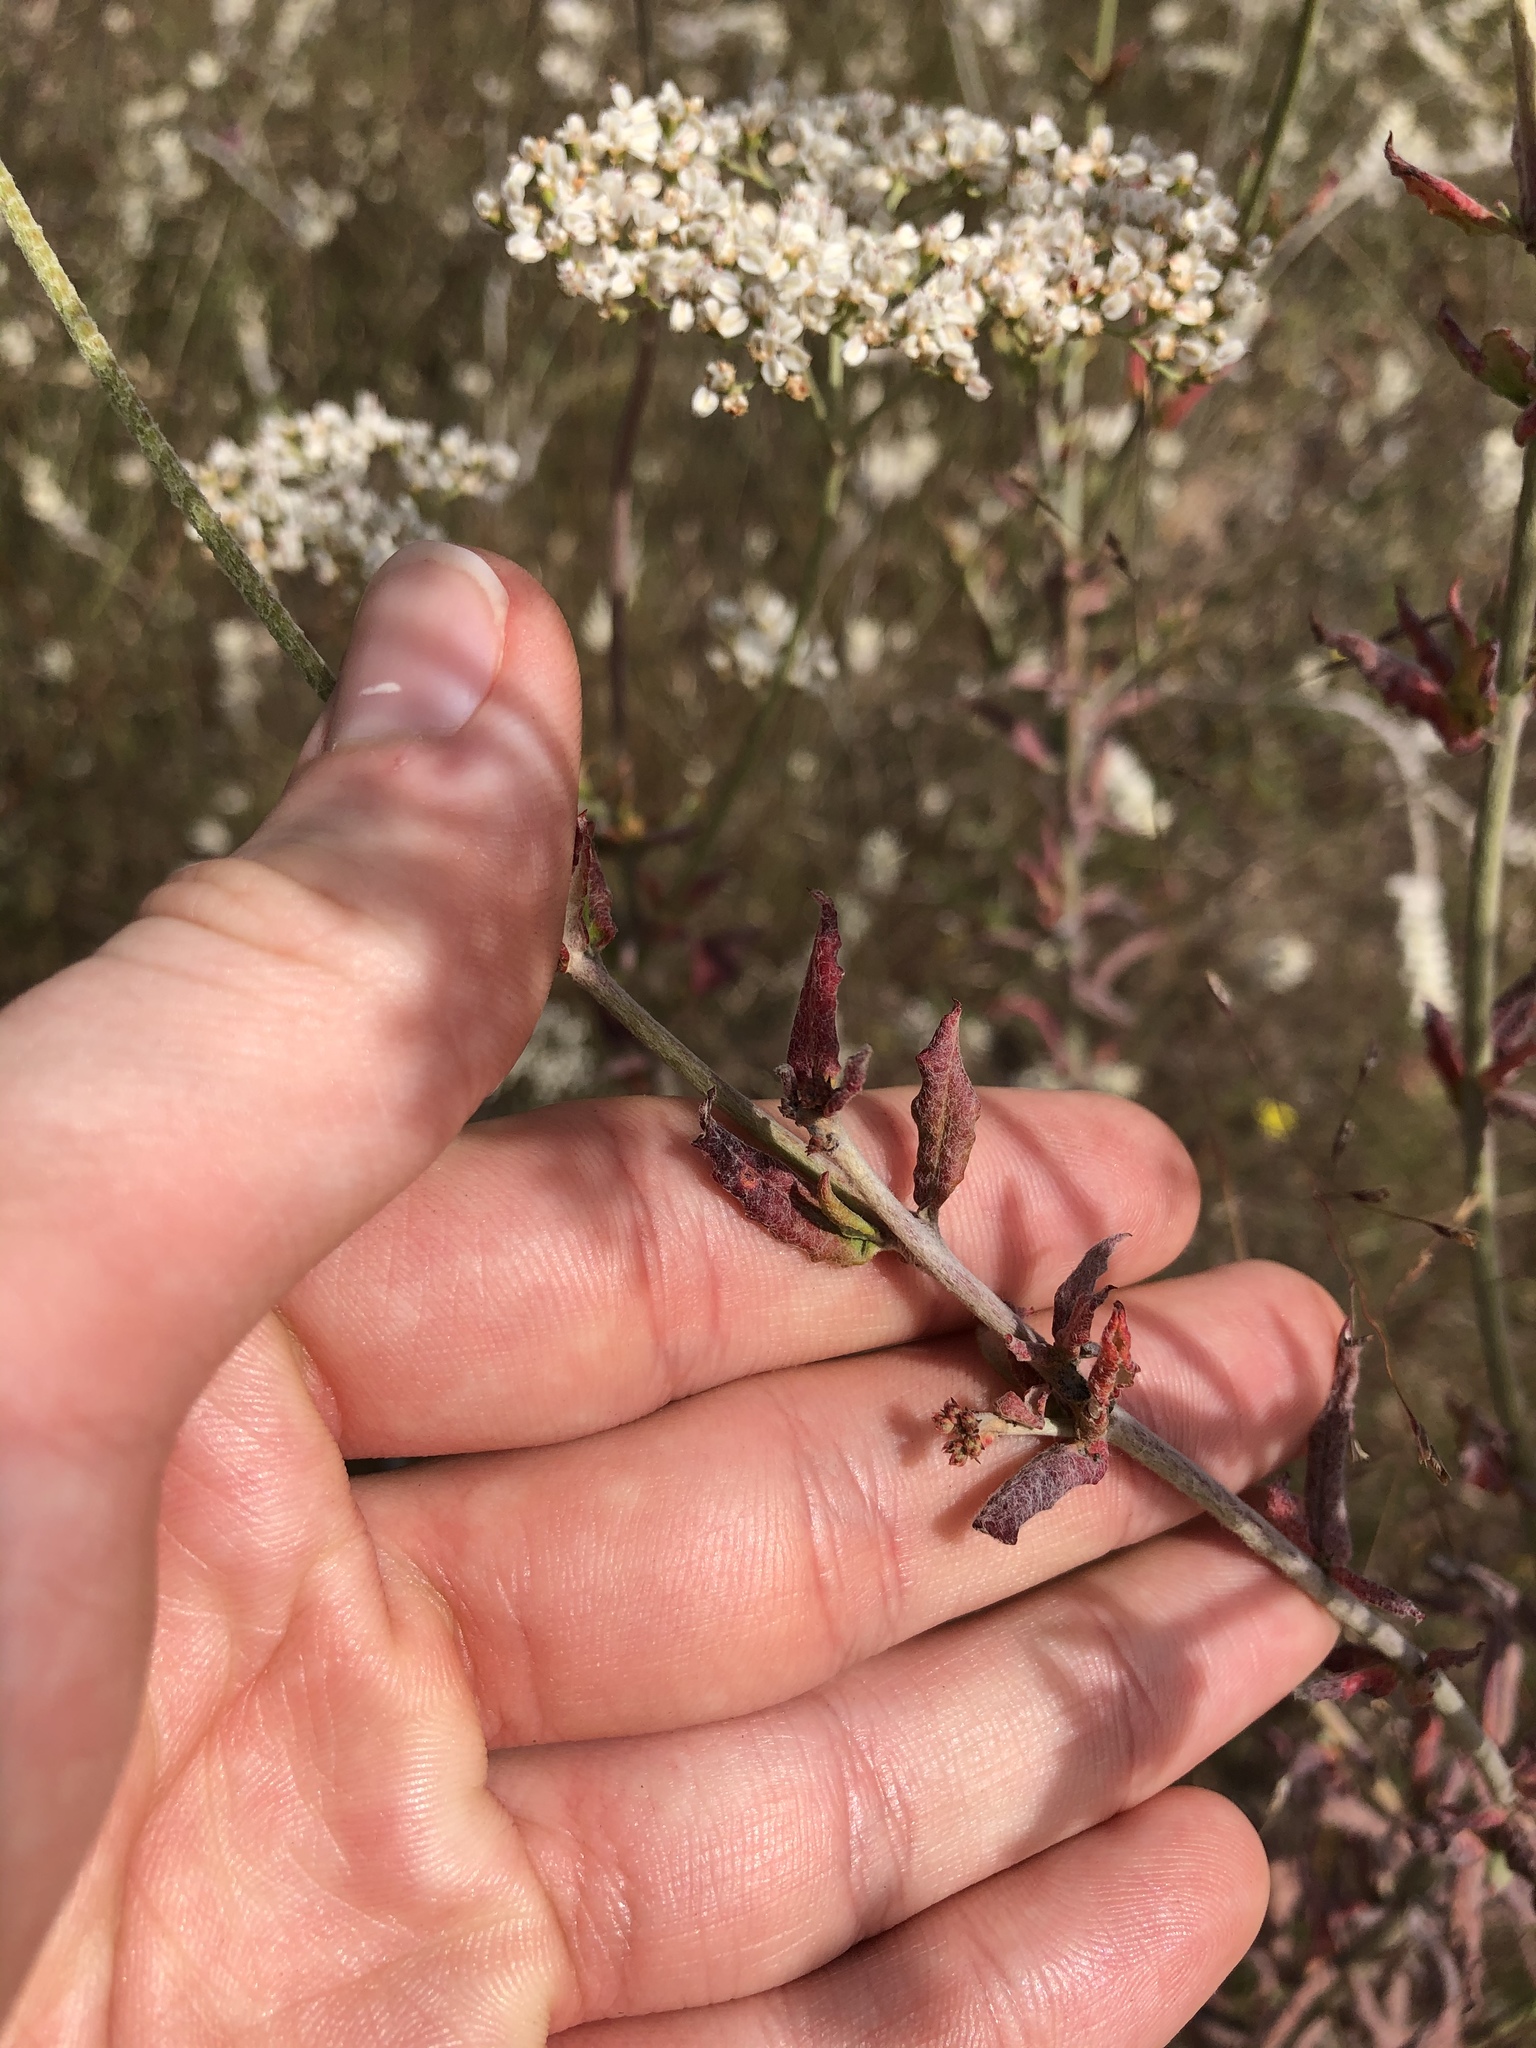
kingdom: Plantae
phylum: Tracheophyta
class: Magnoliopsida
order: Caryophyllales
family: Polygonaceae
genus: Eriogonum
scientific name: Eriogonum multiflorum
